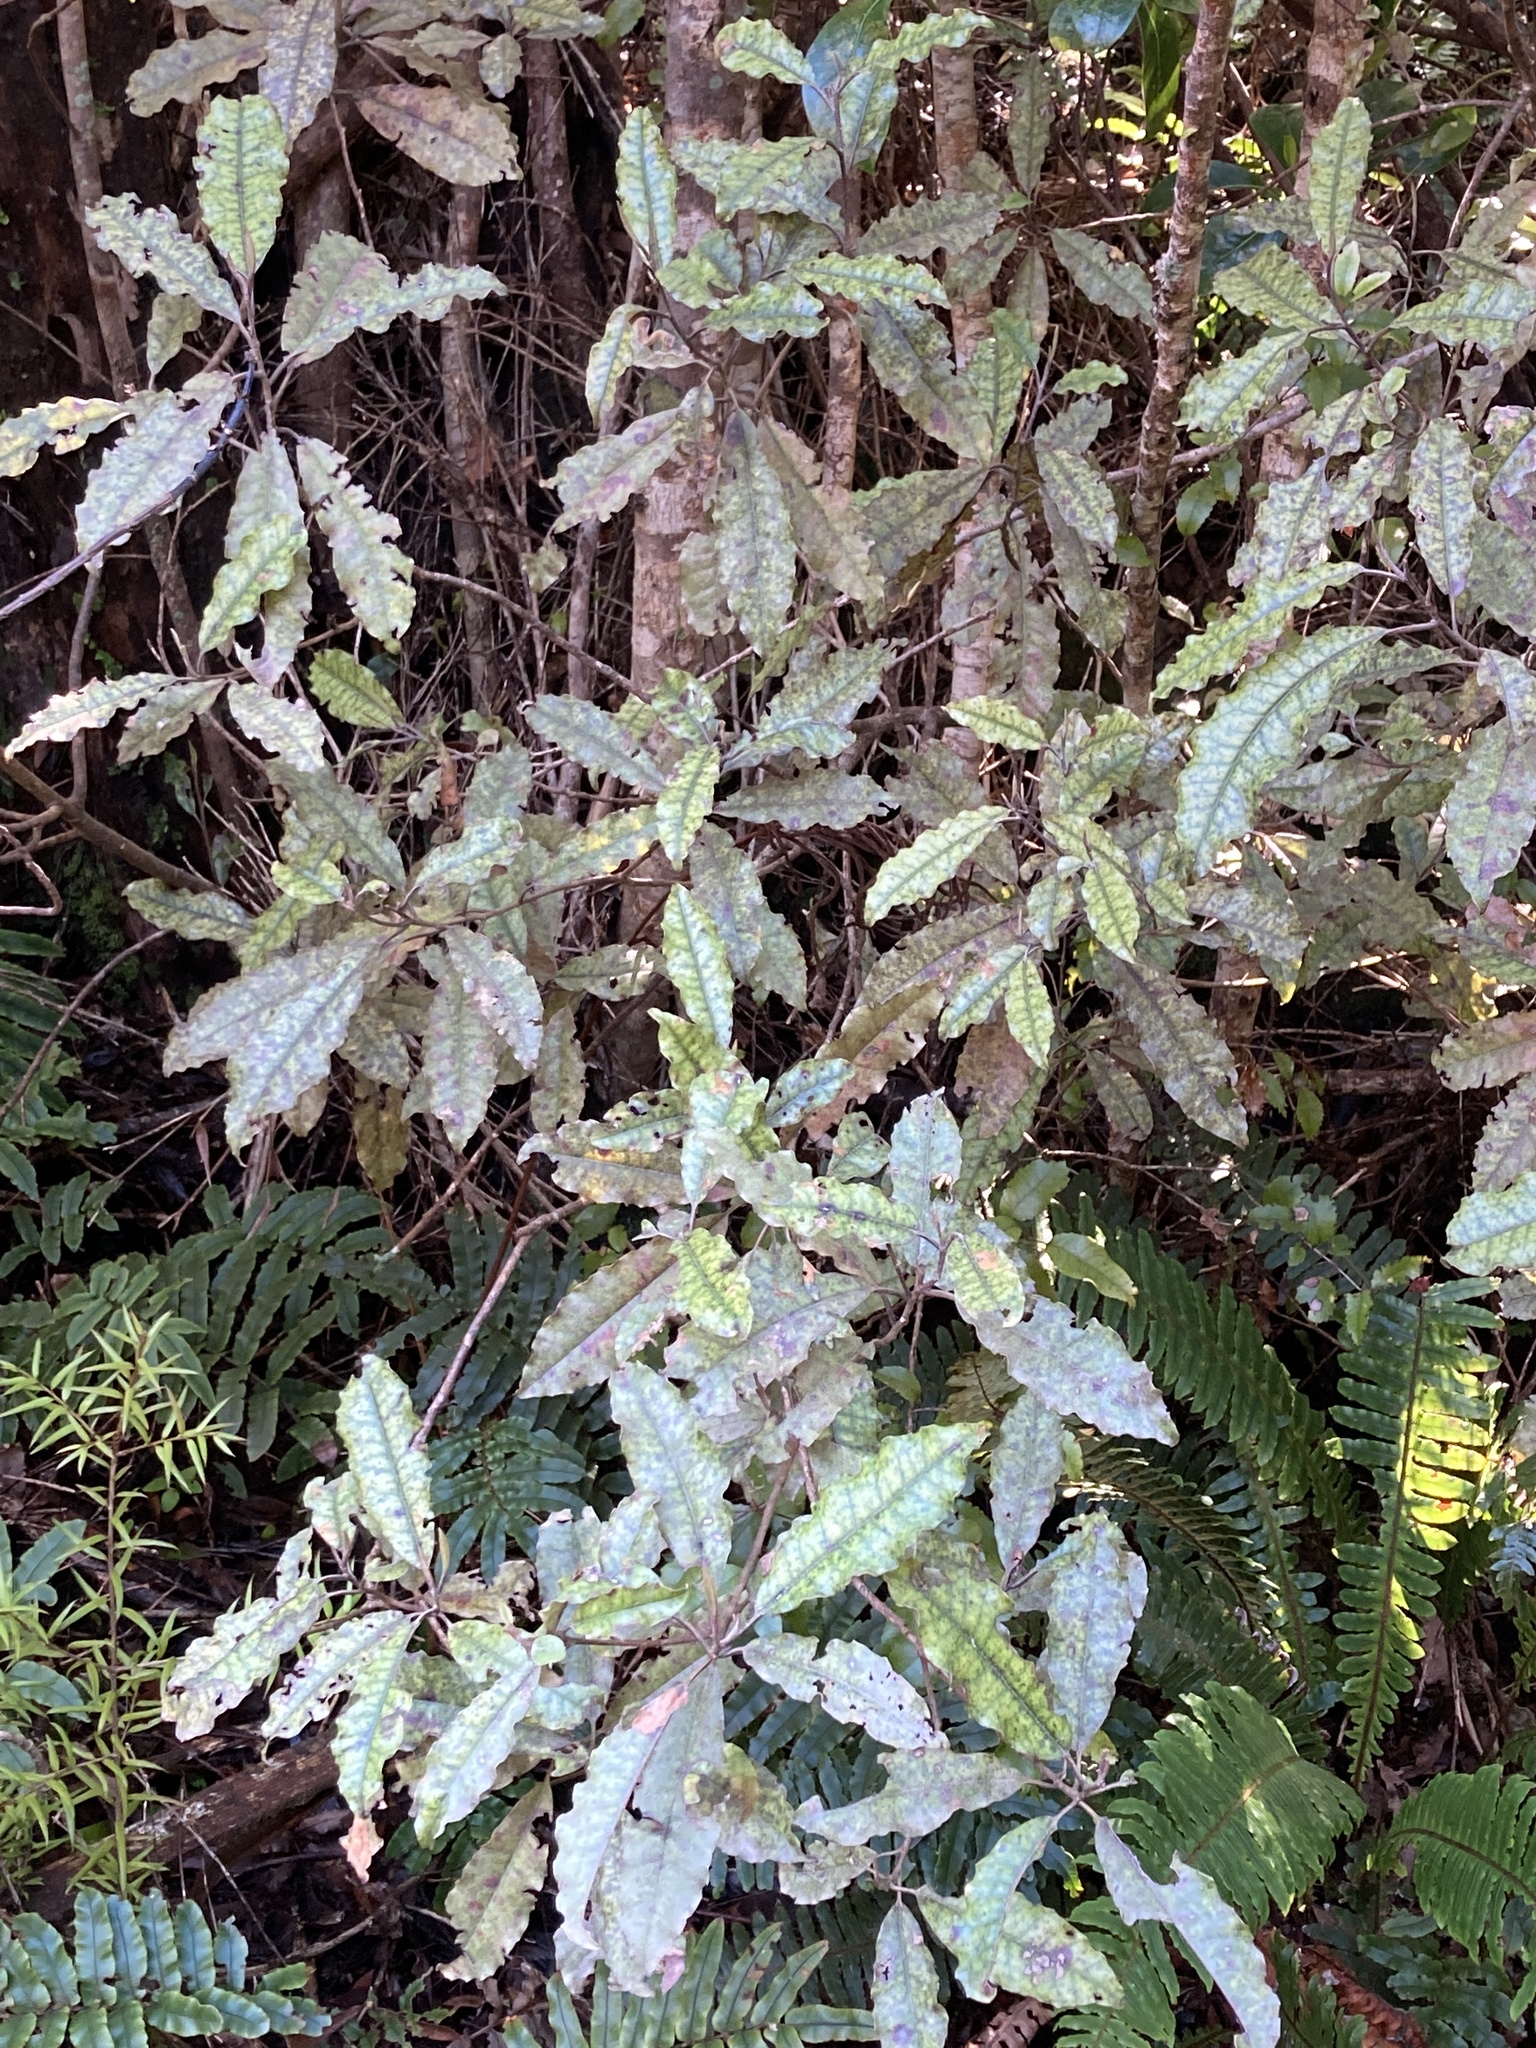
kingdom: Plantae
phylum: Tracheophyta
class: Magnoliopsida
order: Paracryphiales
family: Paracryphiaceae
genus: Quintinia
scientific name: Quintinia serrata
